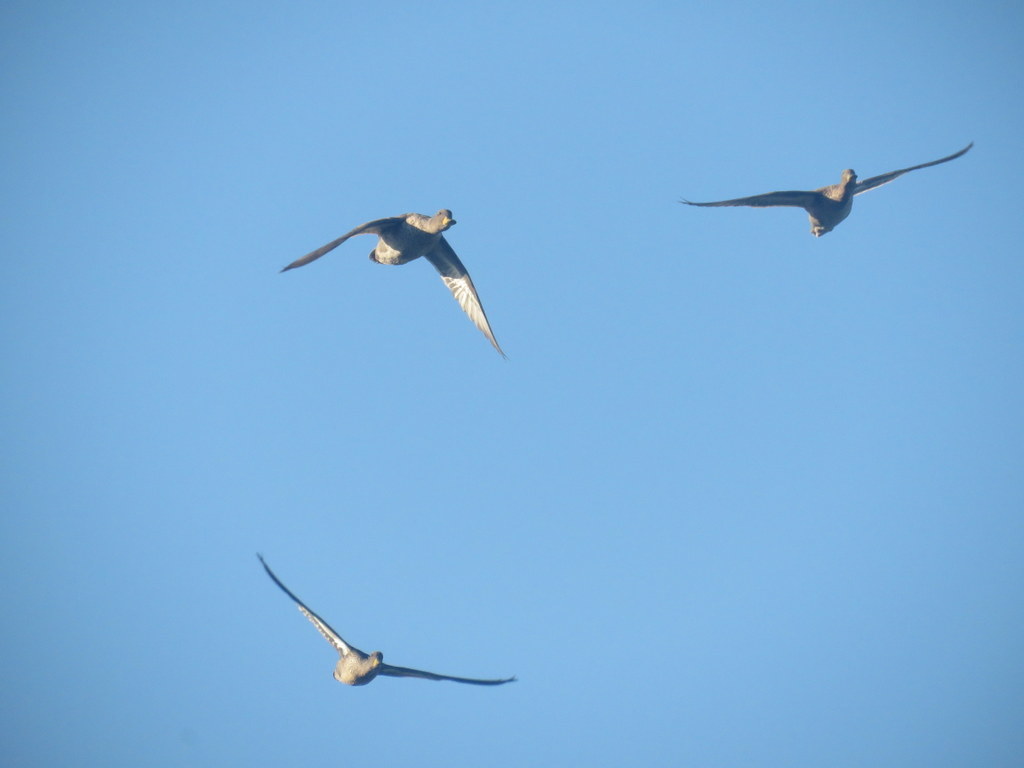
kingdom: Animalia
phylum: Chordata
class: Aves
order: Anseriformes
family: Anatidae
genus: Anas
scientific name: Anas georgica
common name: Yellow-billed pintail
